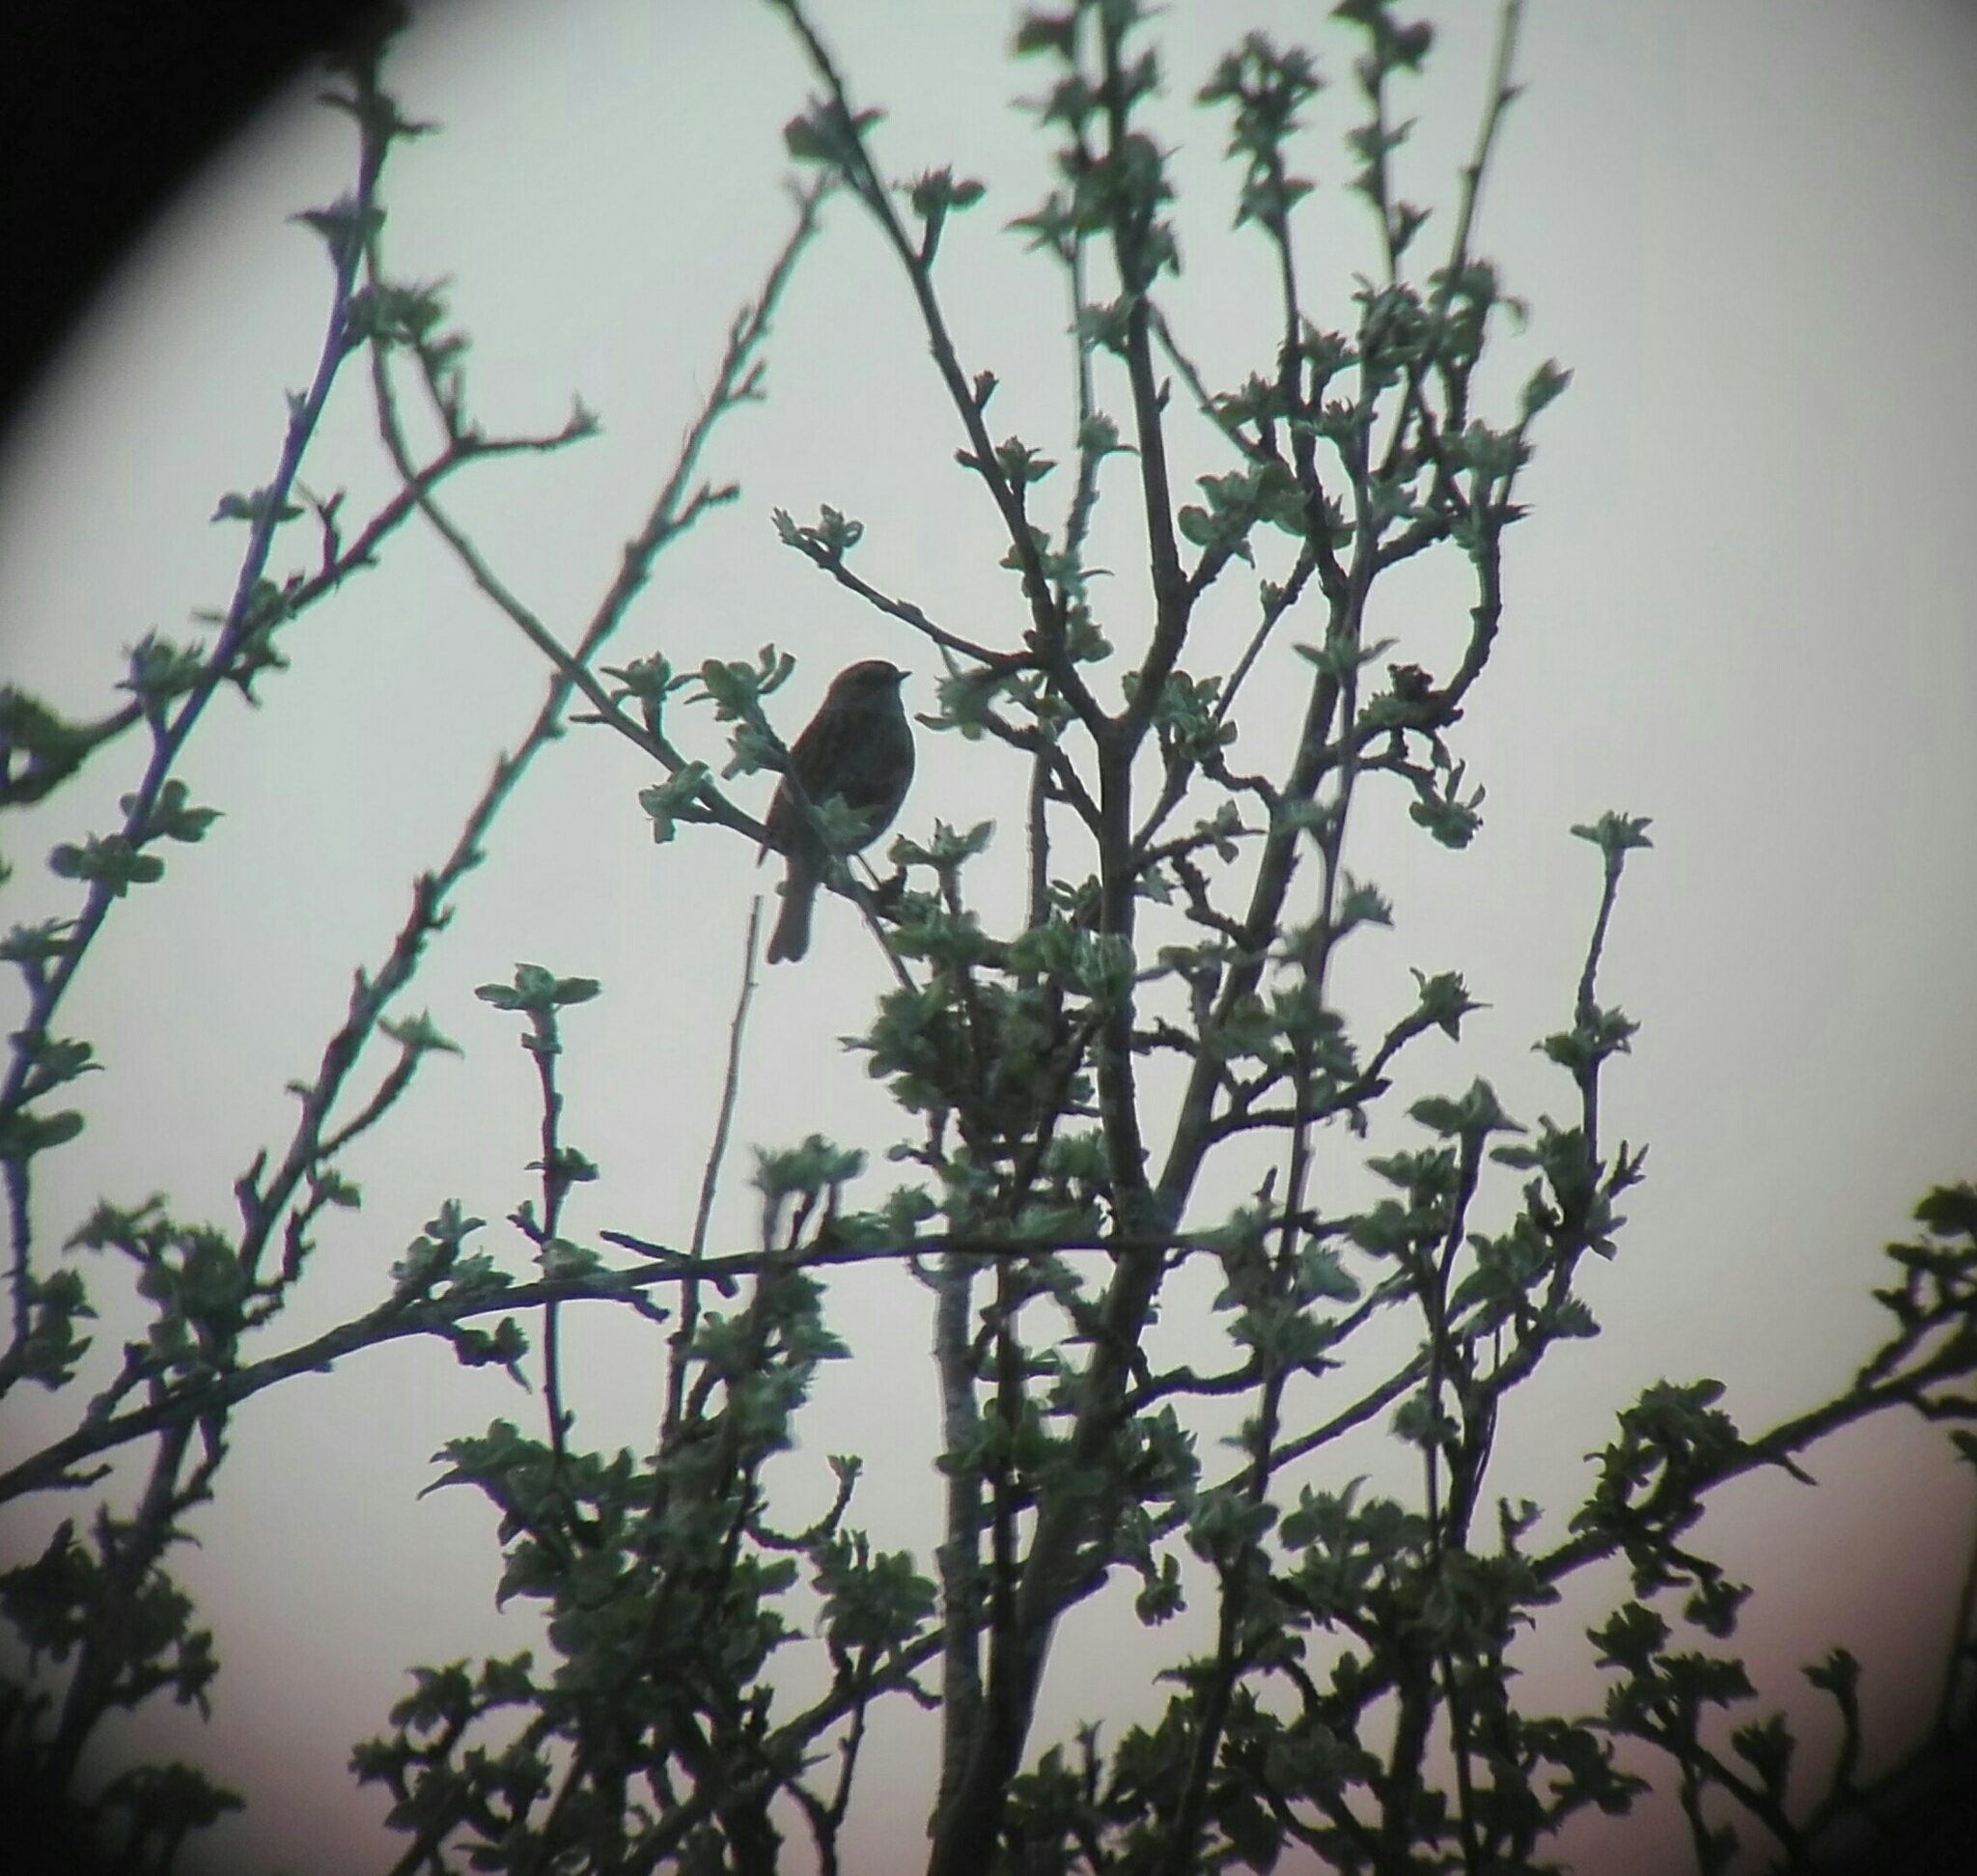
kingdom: Animalia
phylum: Chordata
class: Aves
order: Passeriformes
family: Prunellidae
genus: Prunella
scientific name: Prunella modularis
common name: Dunnock
